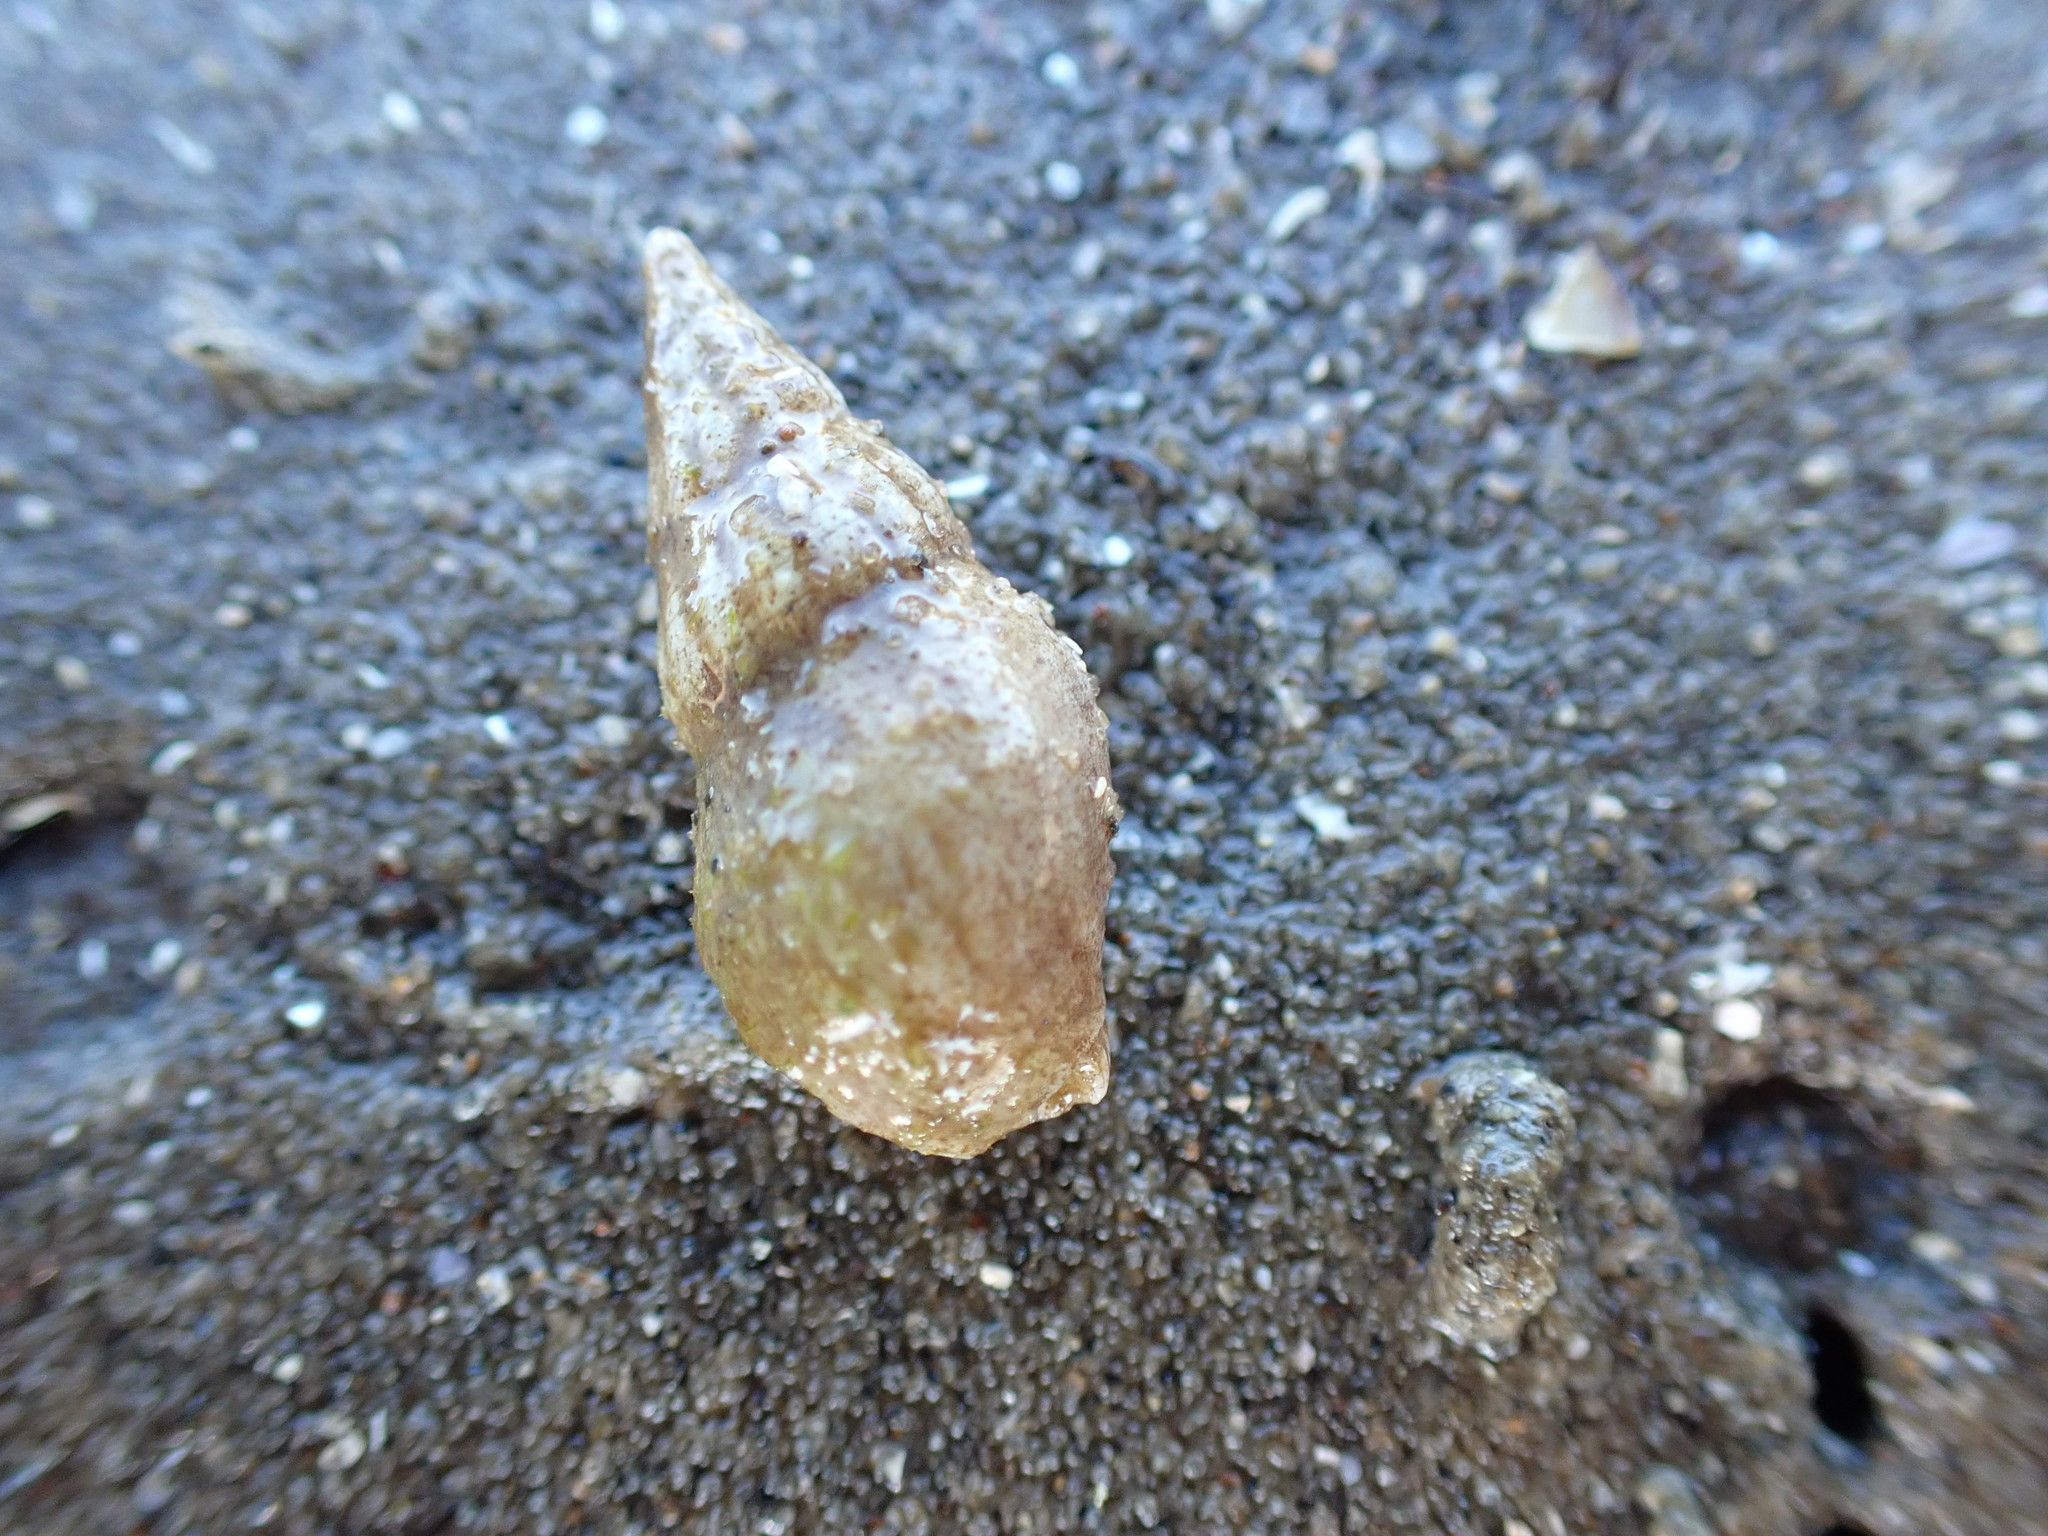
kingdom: Animalia
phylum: Mollusca
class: Gastropoda
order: Neogastropoda
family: Cominellidae
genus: Cominella
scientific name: Cominella accuminata
